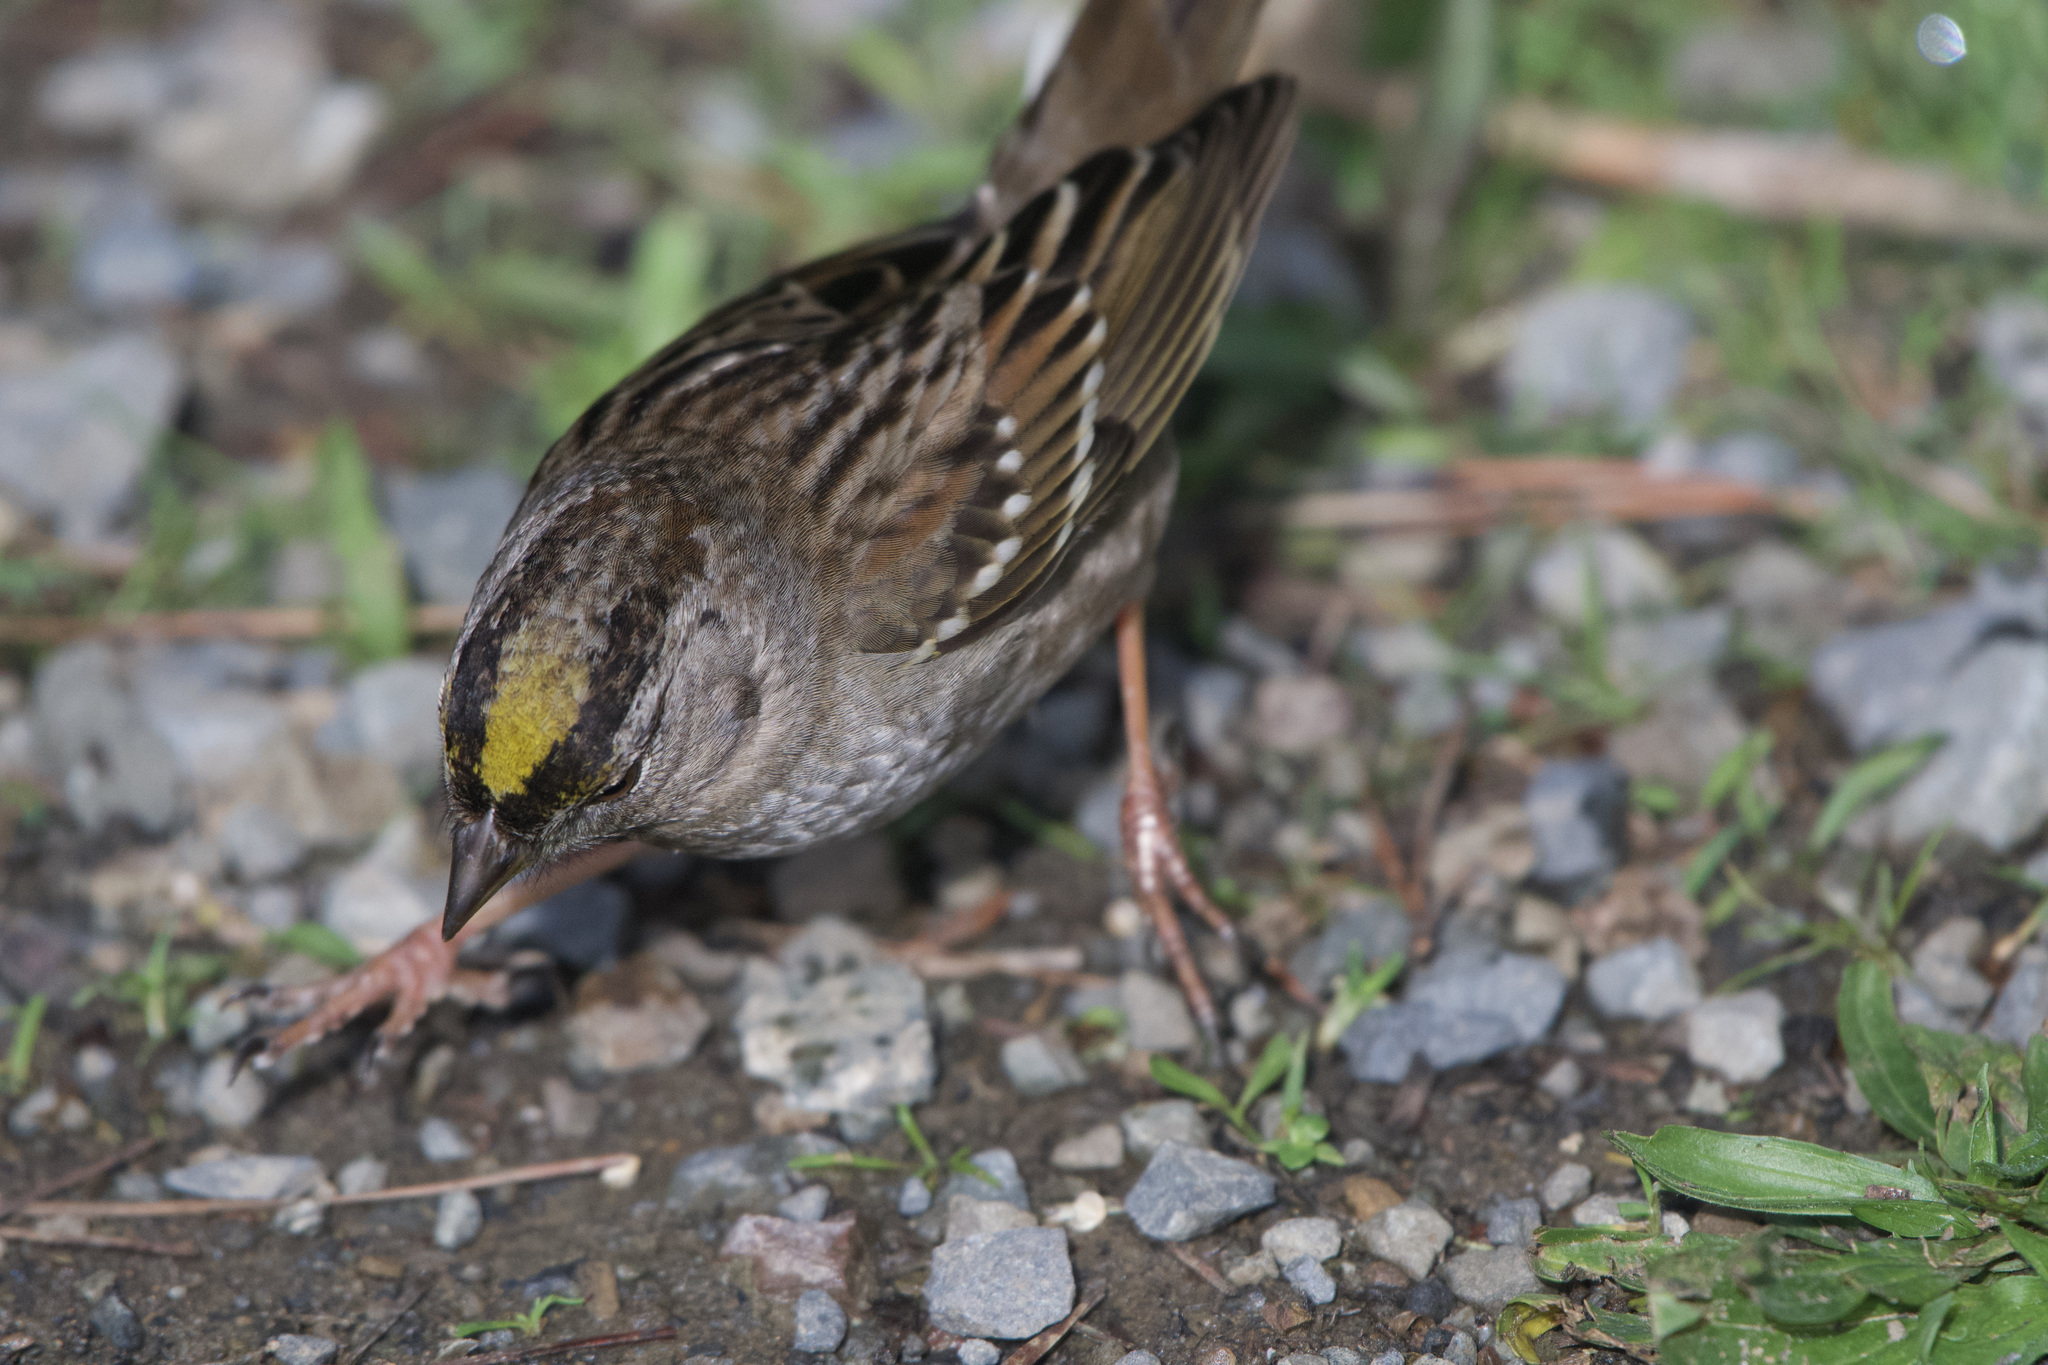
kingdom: Animalia
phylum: Chordata
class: Aves
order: Passeriformes
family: Passerellidae
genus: Zonotrichia
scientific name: Zonotrichia atricapilla
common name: Golden-crowned sparrow
